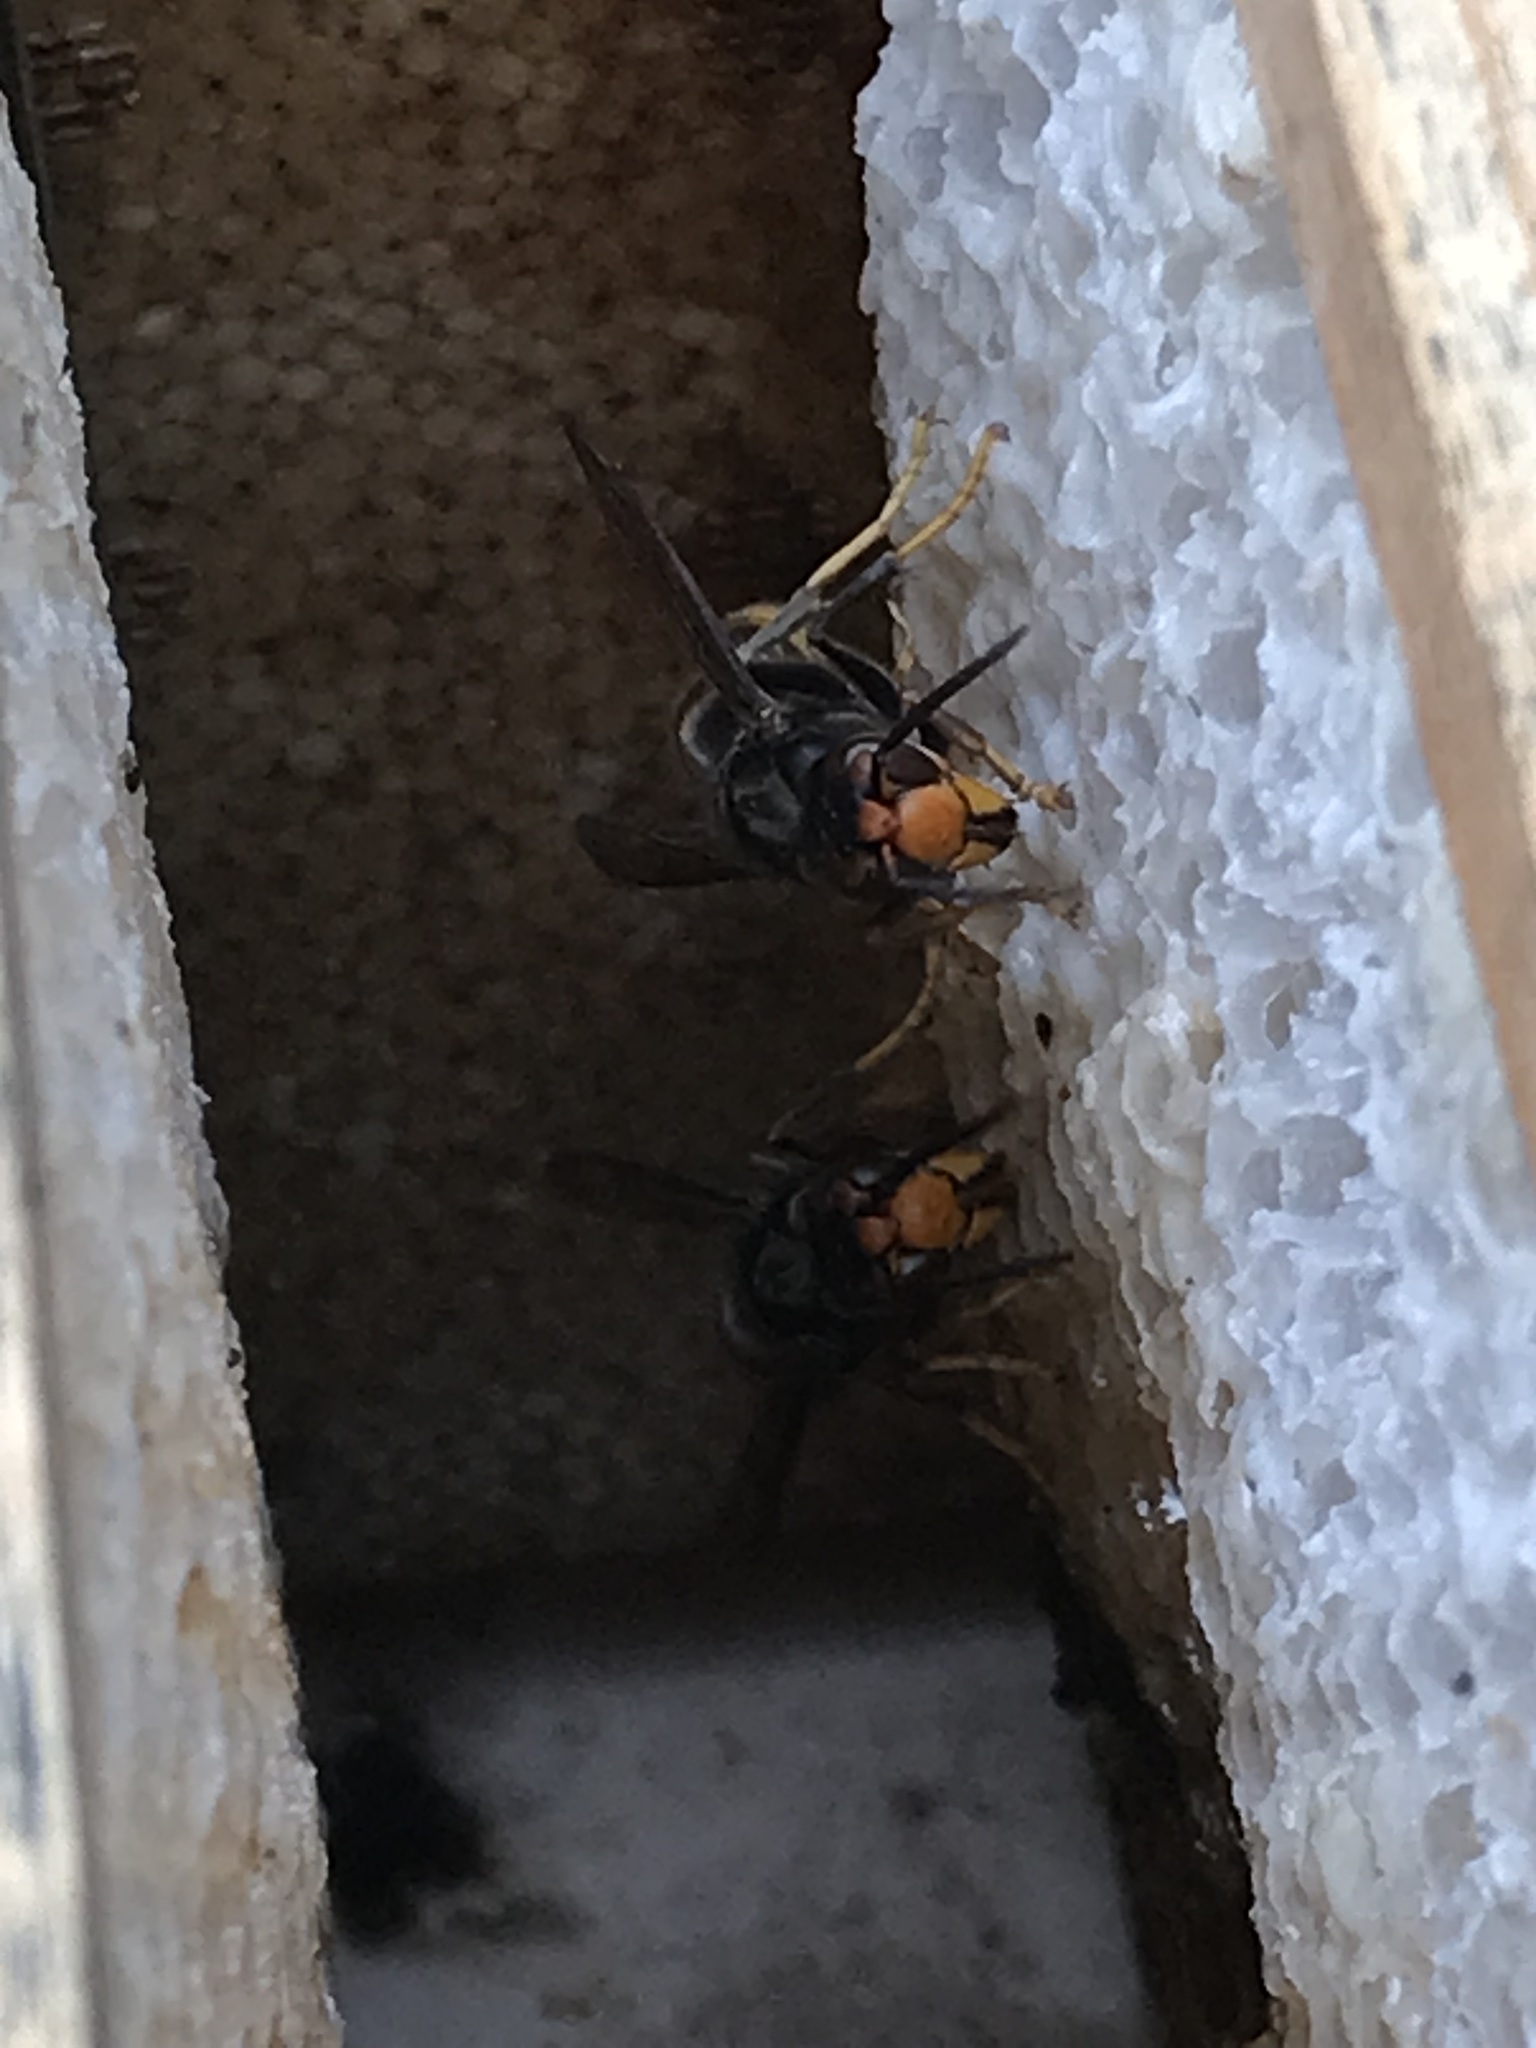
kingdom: Animalia
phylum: Arthropoda
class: Insecta
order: Hymenoptera
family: Vespidae
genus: Vespa
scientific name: Vespa velutina
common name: Asian hornet
